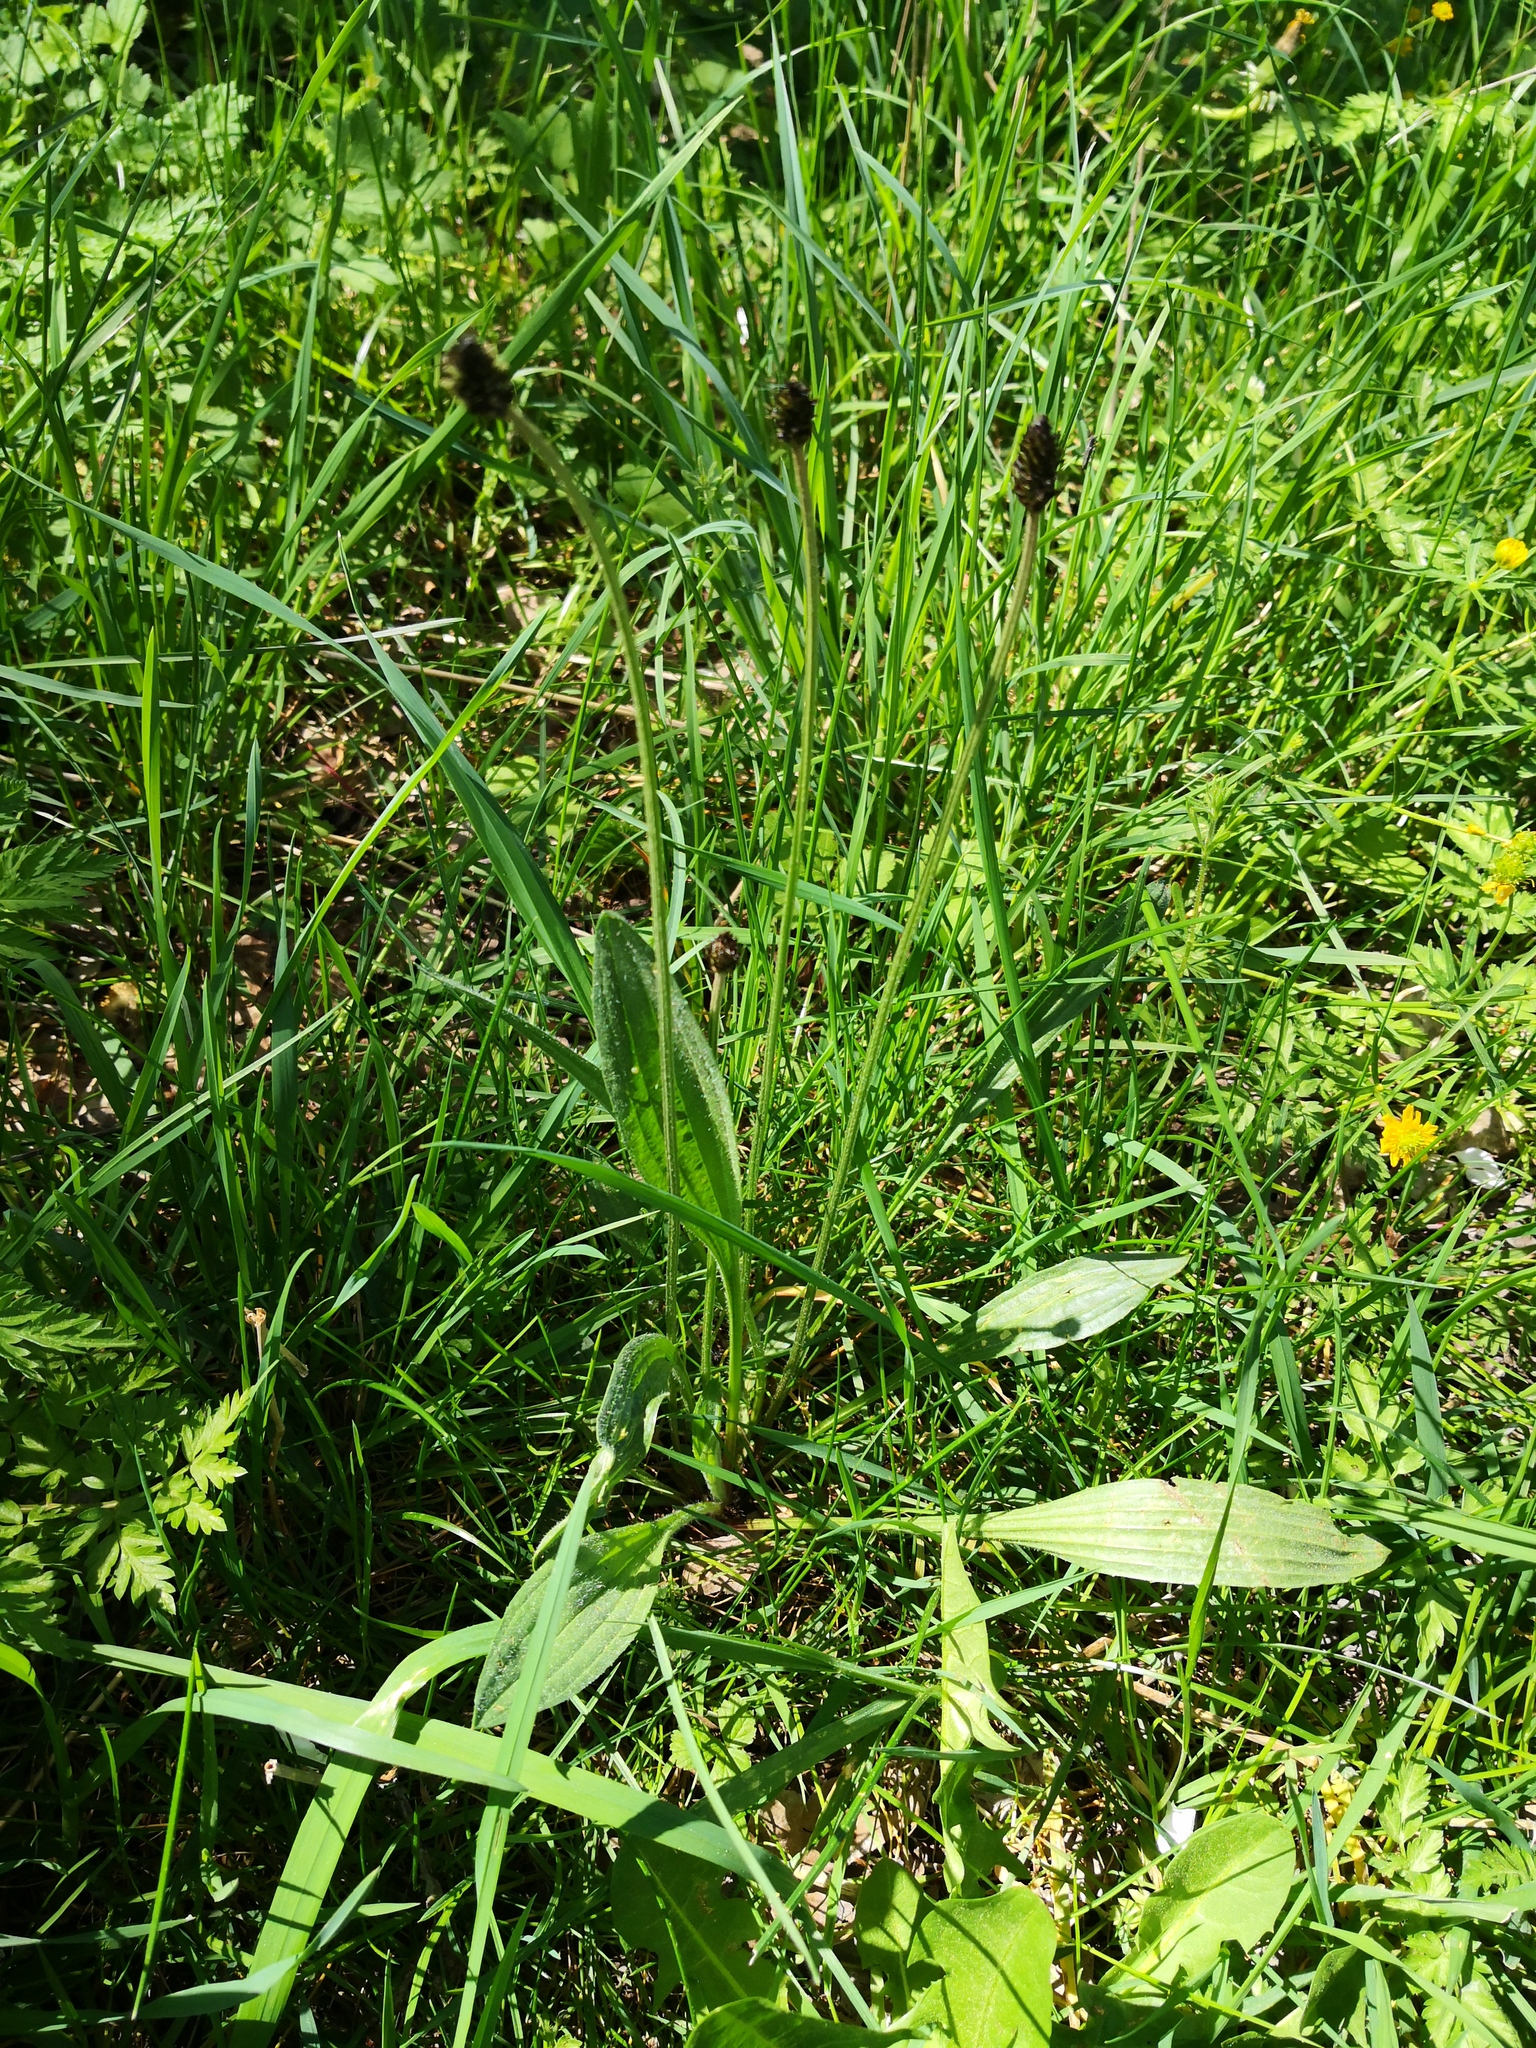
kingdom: Plantae
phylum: Tracheophyta
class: Magnoliopsida
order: Lamiales
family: Plantaginaceae
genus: Plantago
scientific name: Plantago lanceolata
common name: Ribwort plantain
